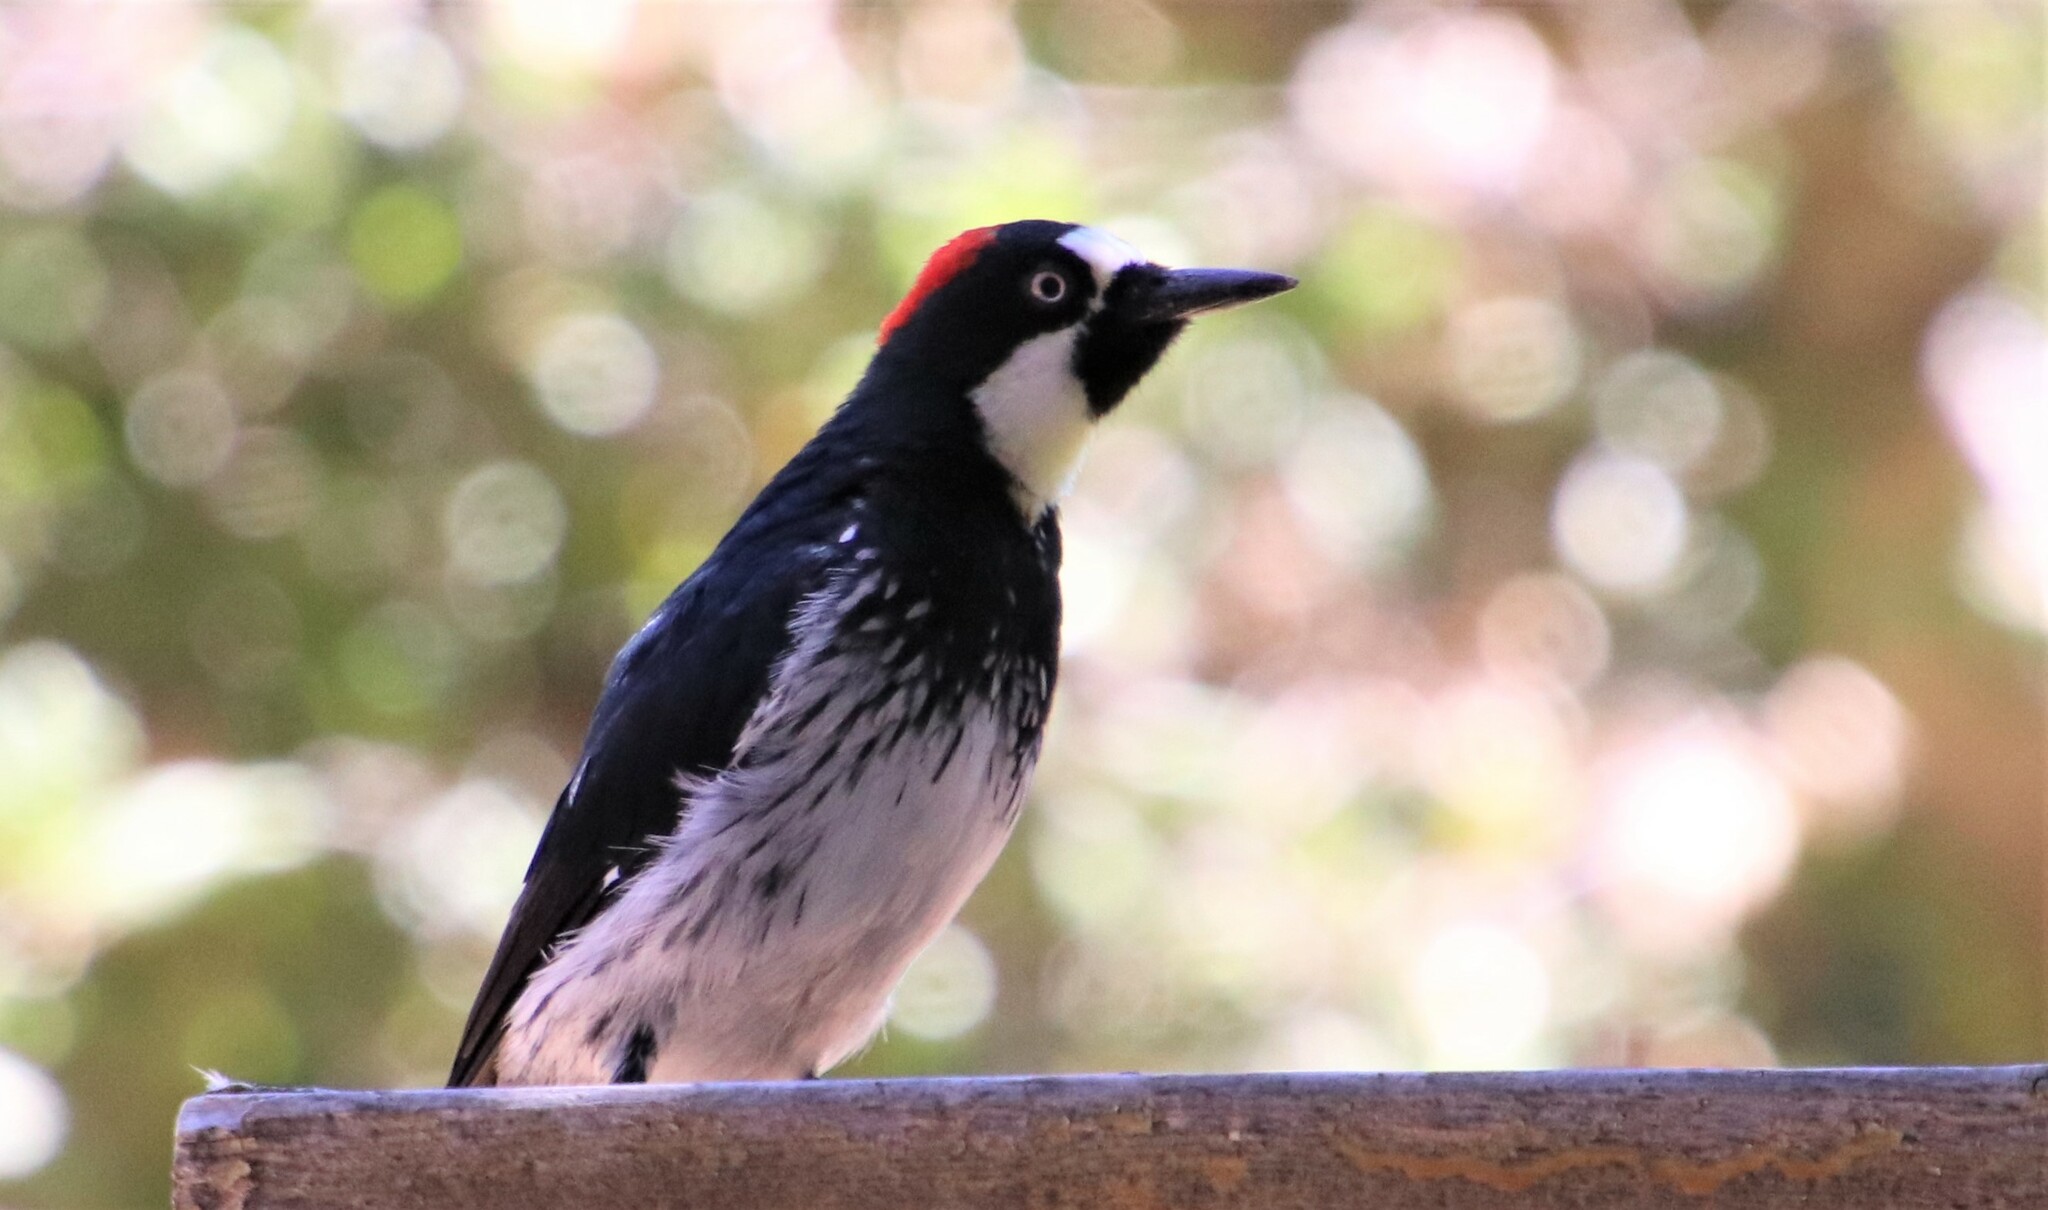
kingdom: Animalia
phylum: Chordata
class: Aves
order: Piciformes
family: Picidae
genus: Melanerpes
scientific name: Melanerpes formicivorus
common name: Acorn woodpecker
